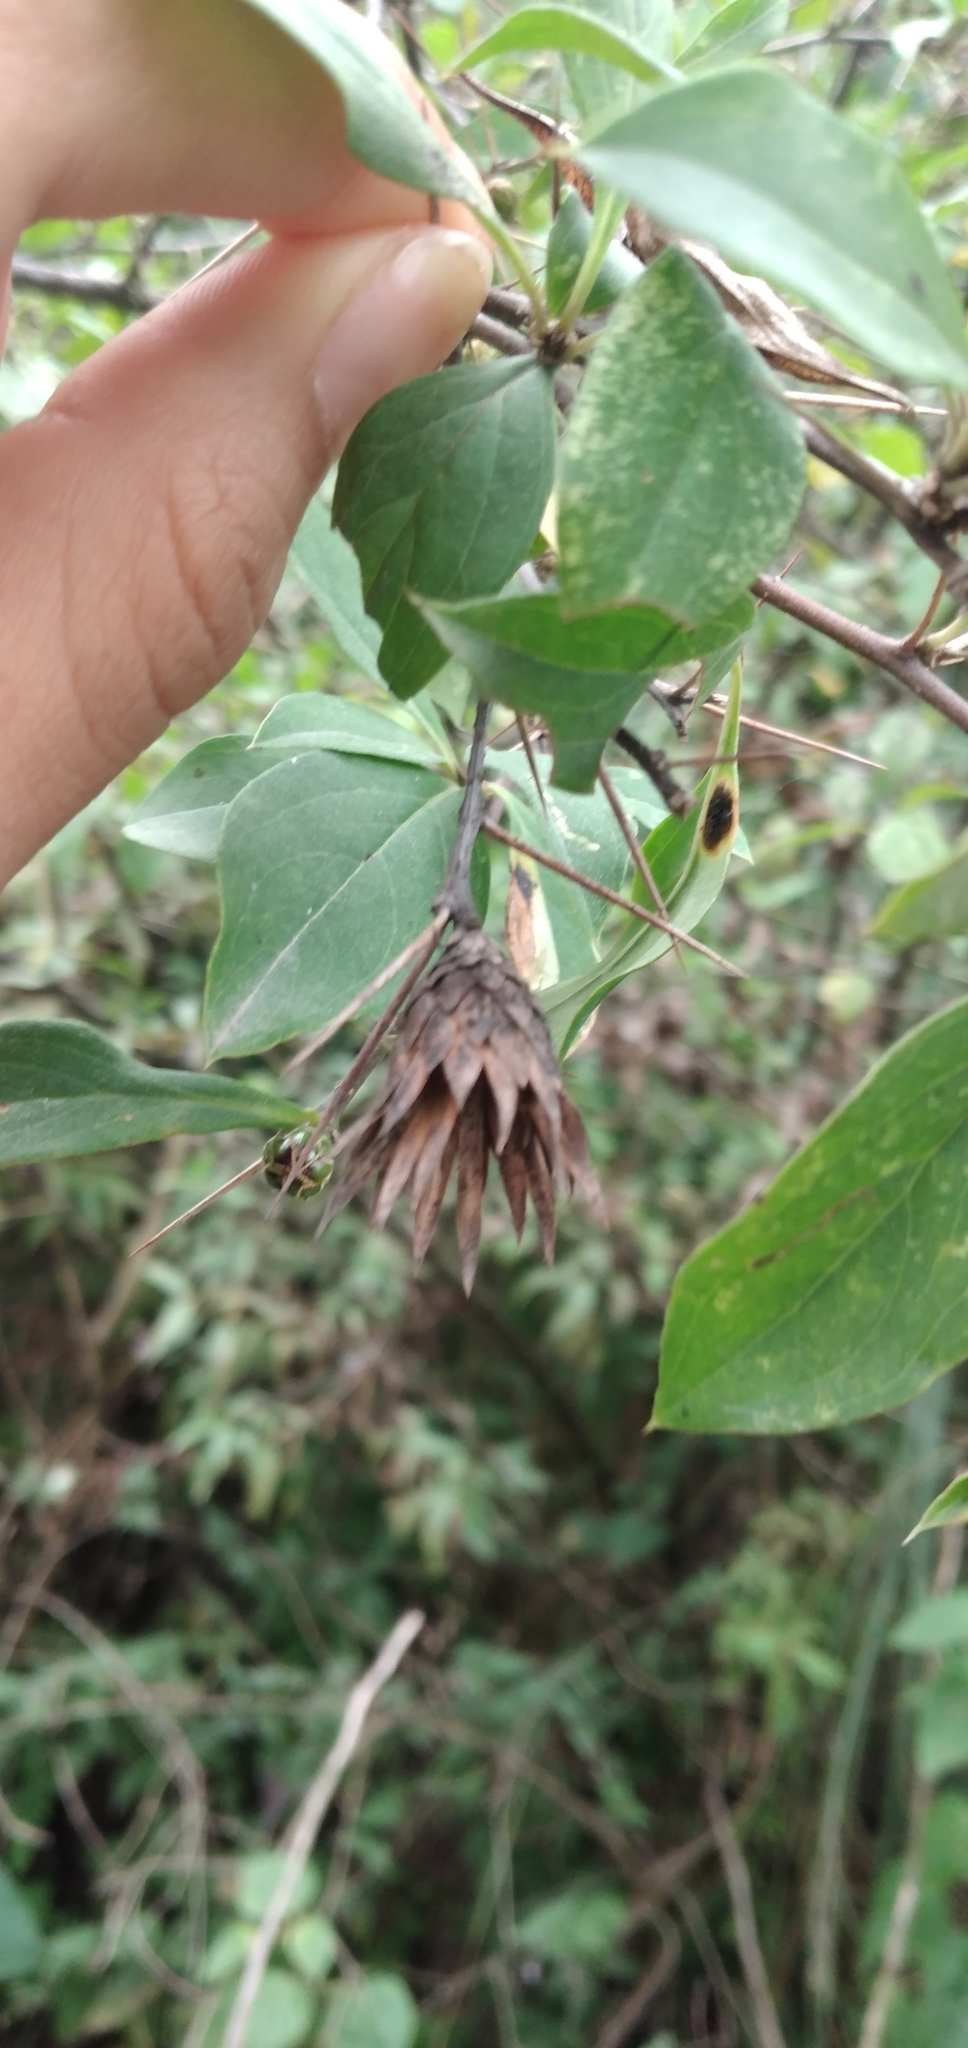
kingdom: Plantae
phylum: Tracheophyta
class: Magnoliopsida
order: Asterales
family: Asteraceae
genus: Barnadesia
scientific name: Barnadesia odorata
